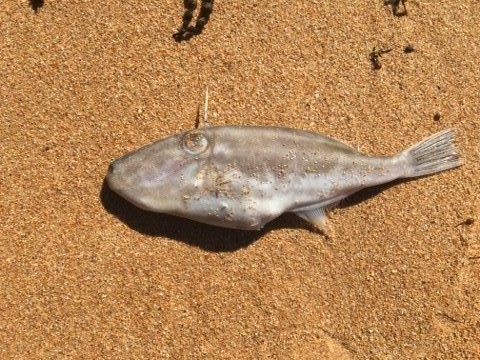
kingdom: Animalia
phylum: Chordata
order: Tetraodontiformes
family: Monacanthidae
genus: Nelusetta
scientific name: Nelusetta ayraud
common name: Chinaman leatherjacket
